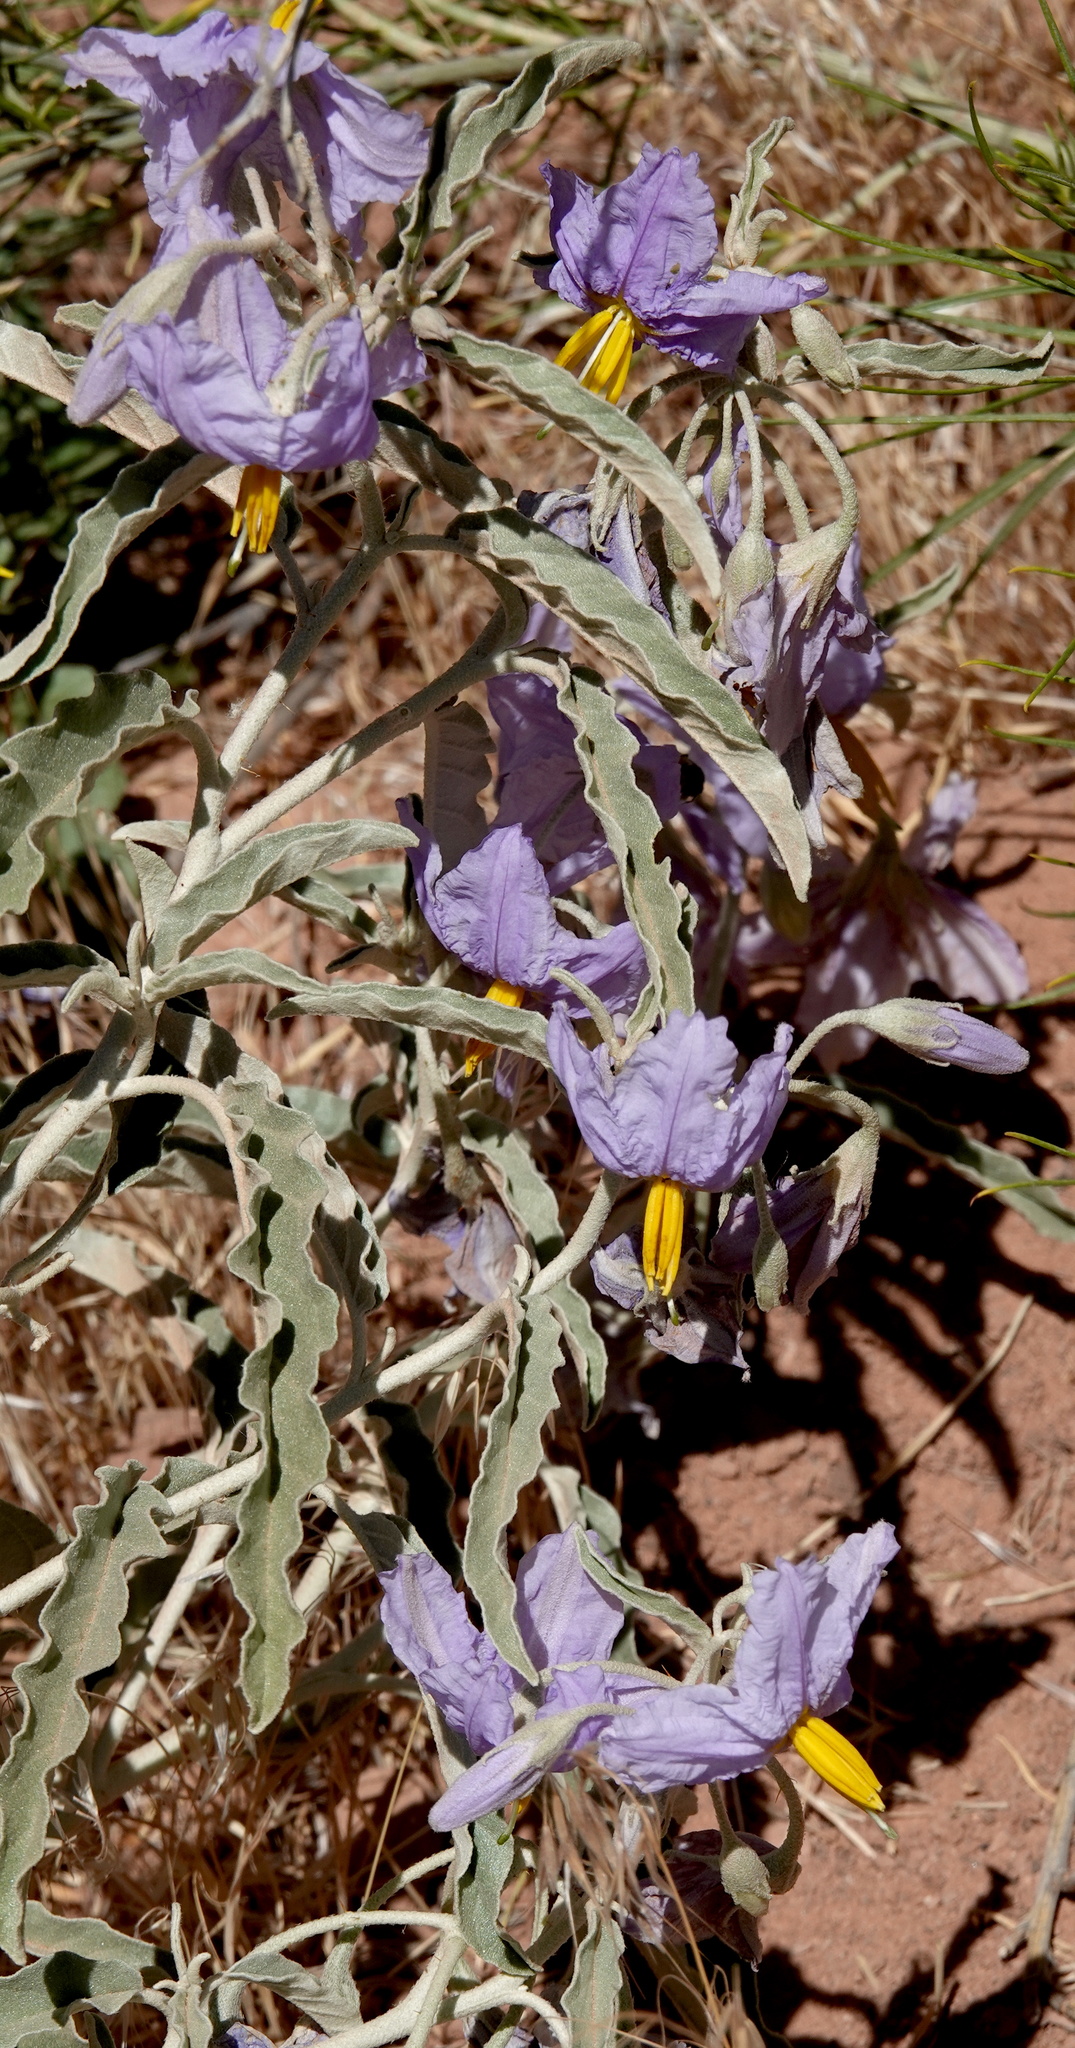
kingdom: Plantae
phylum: Tracheophyta
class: Magnoliopsida
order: Solanales
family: Solanaceae
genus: Solanum
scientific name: Solanum elaeagnifolium
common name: Silverleaf nightshade
